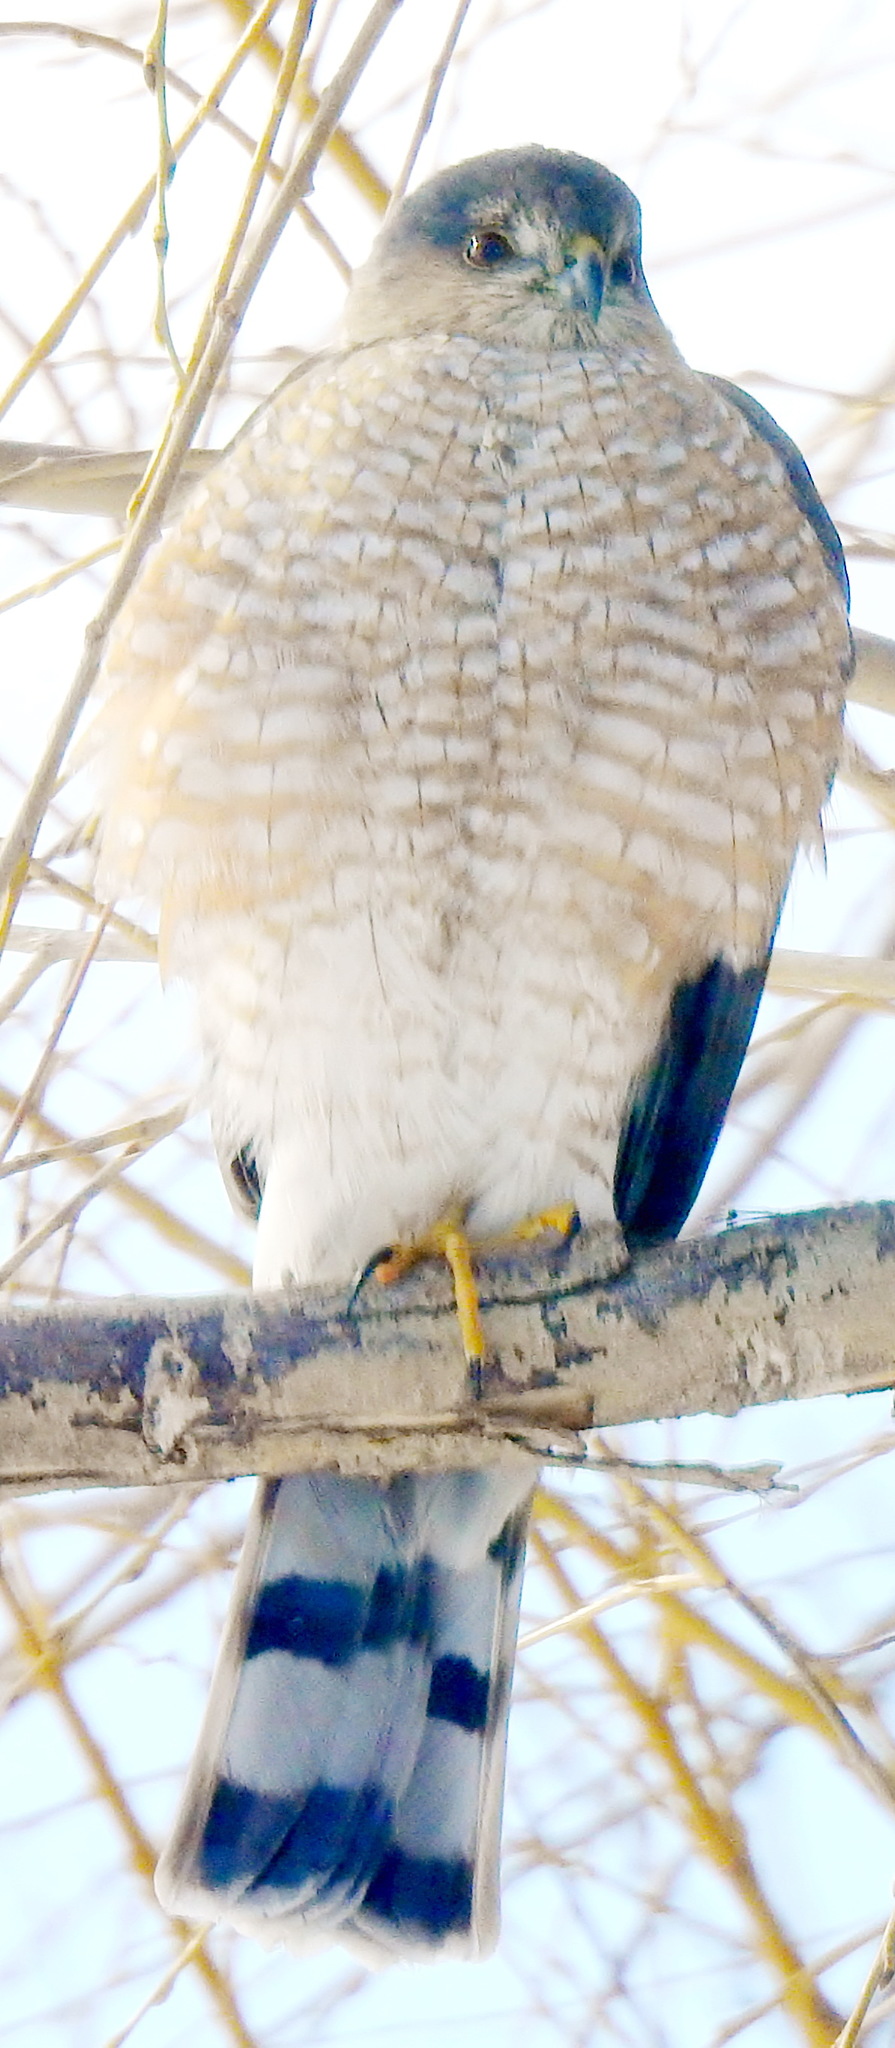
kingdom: Animalia
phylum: Chordata
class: Aves
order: Accipitriformes
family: Accipitridae
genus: Accipiter
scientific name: Accipiter striatus
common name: Sharp-shinned hawk
